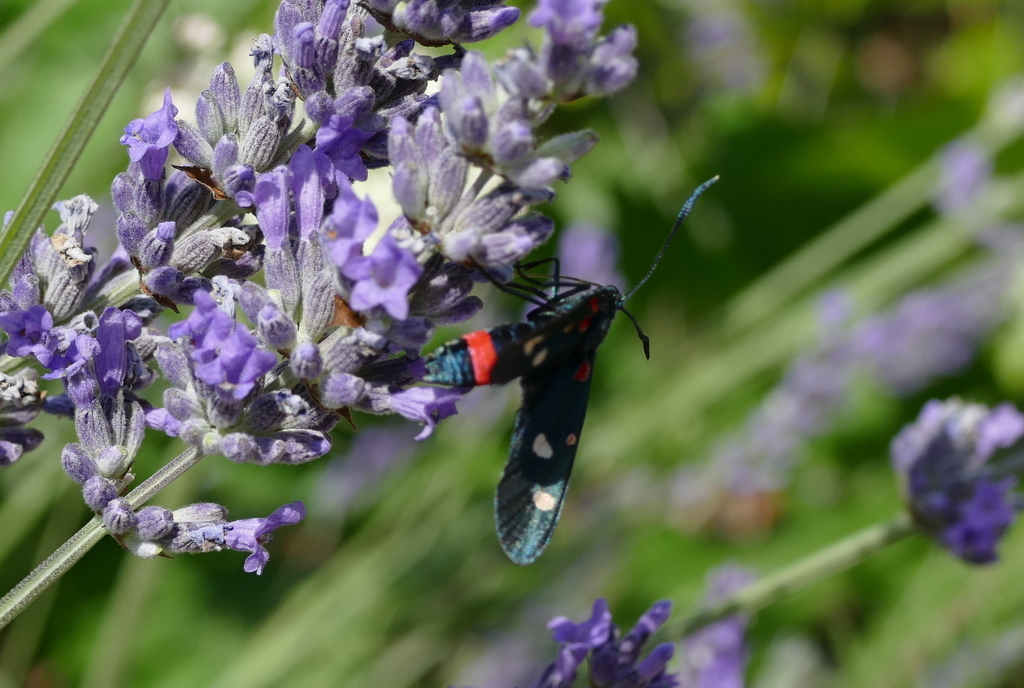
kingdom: Animalia
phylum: Arthropoda
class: Insecta
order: Lepidoptera
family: Zygaenidae
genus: Zygaena
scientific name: Zygaena ephialtes
